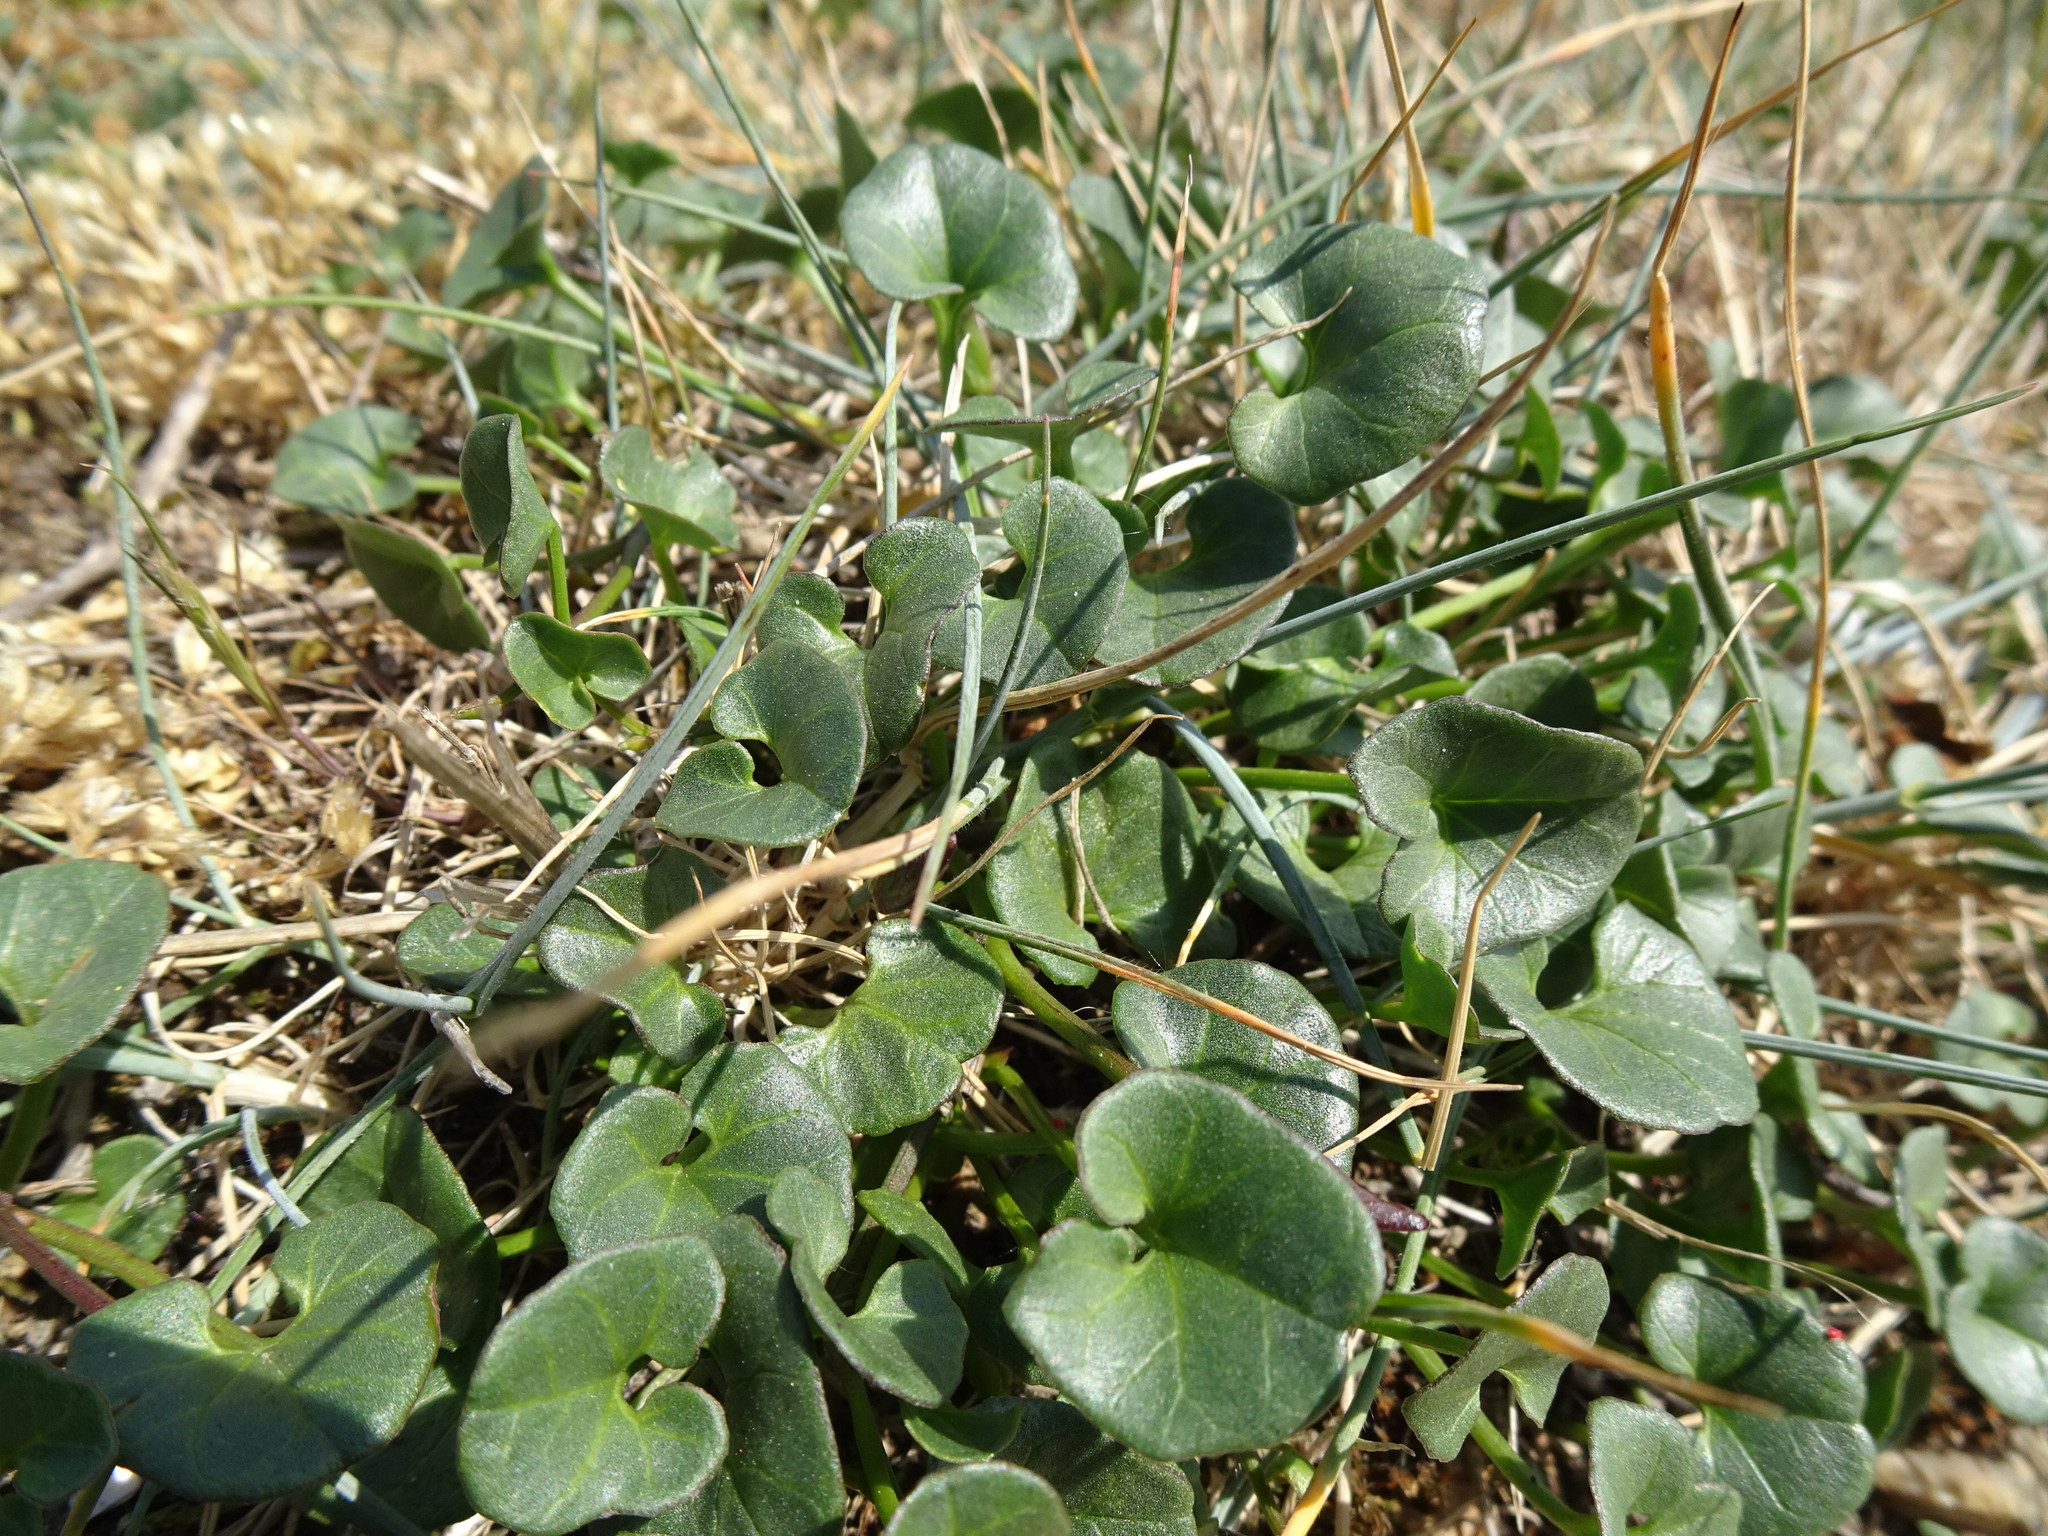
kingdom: Plantae
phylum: Tracheophyta
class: Magnoliopsida
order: Solanales
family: Convolvulaceae
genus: Calystegia
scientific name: Calystegia soldanella
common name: Sea bindweed
